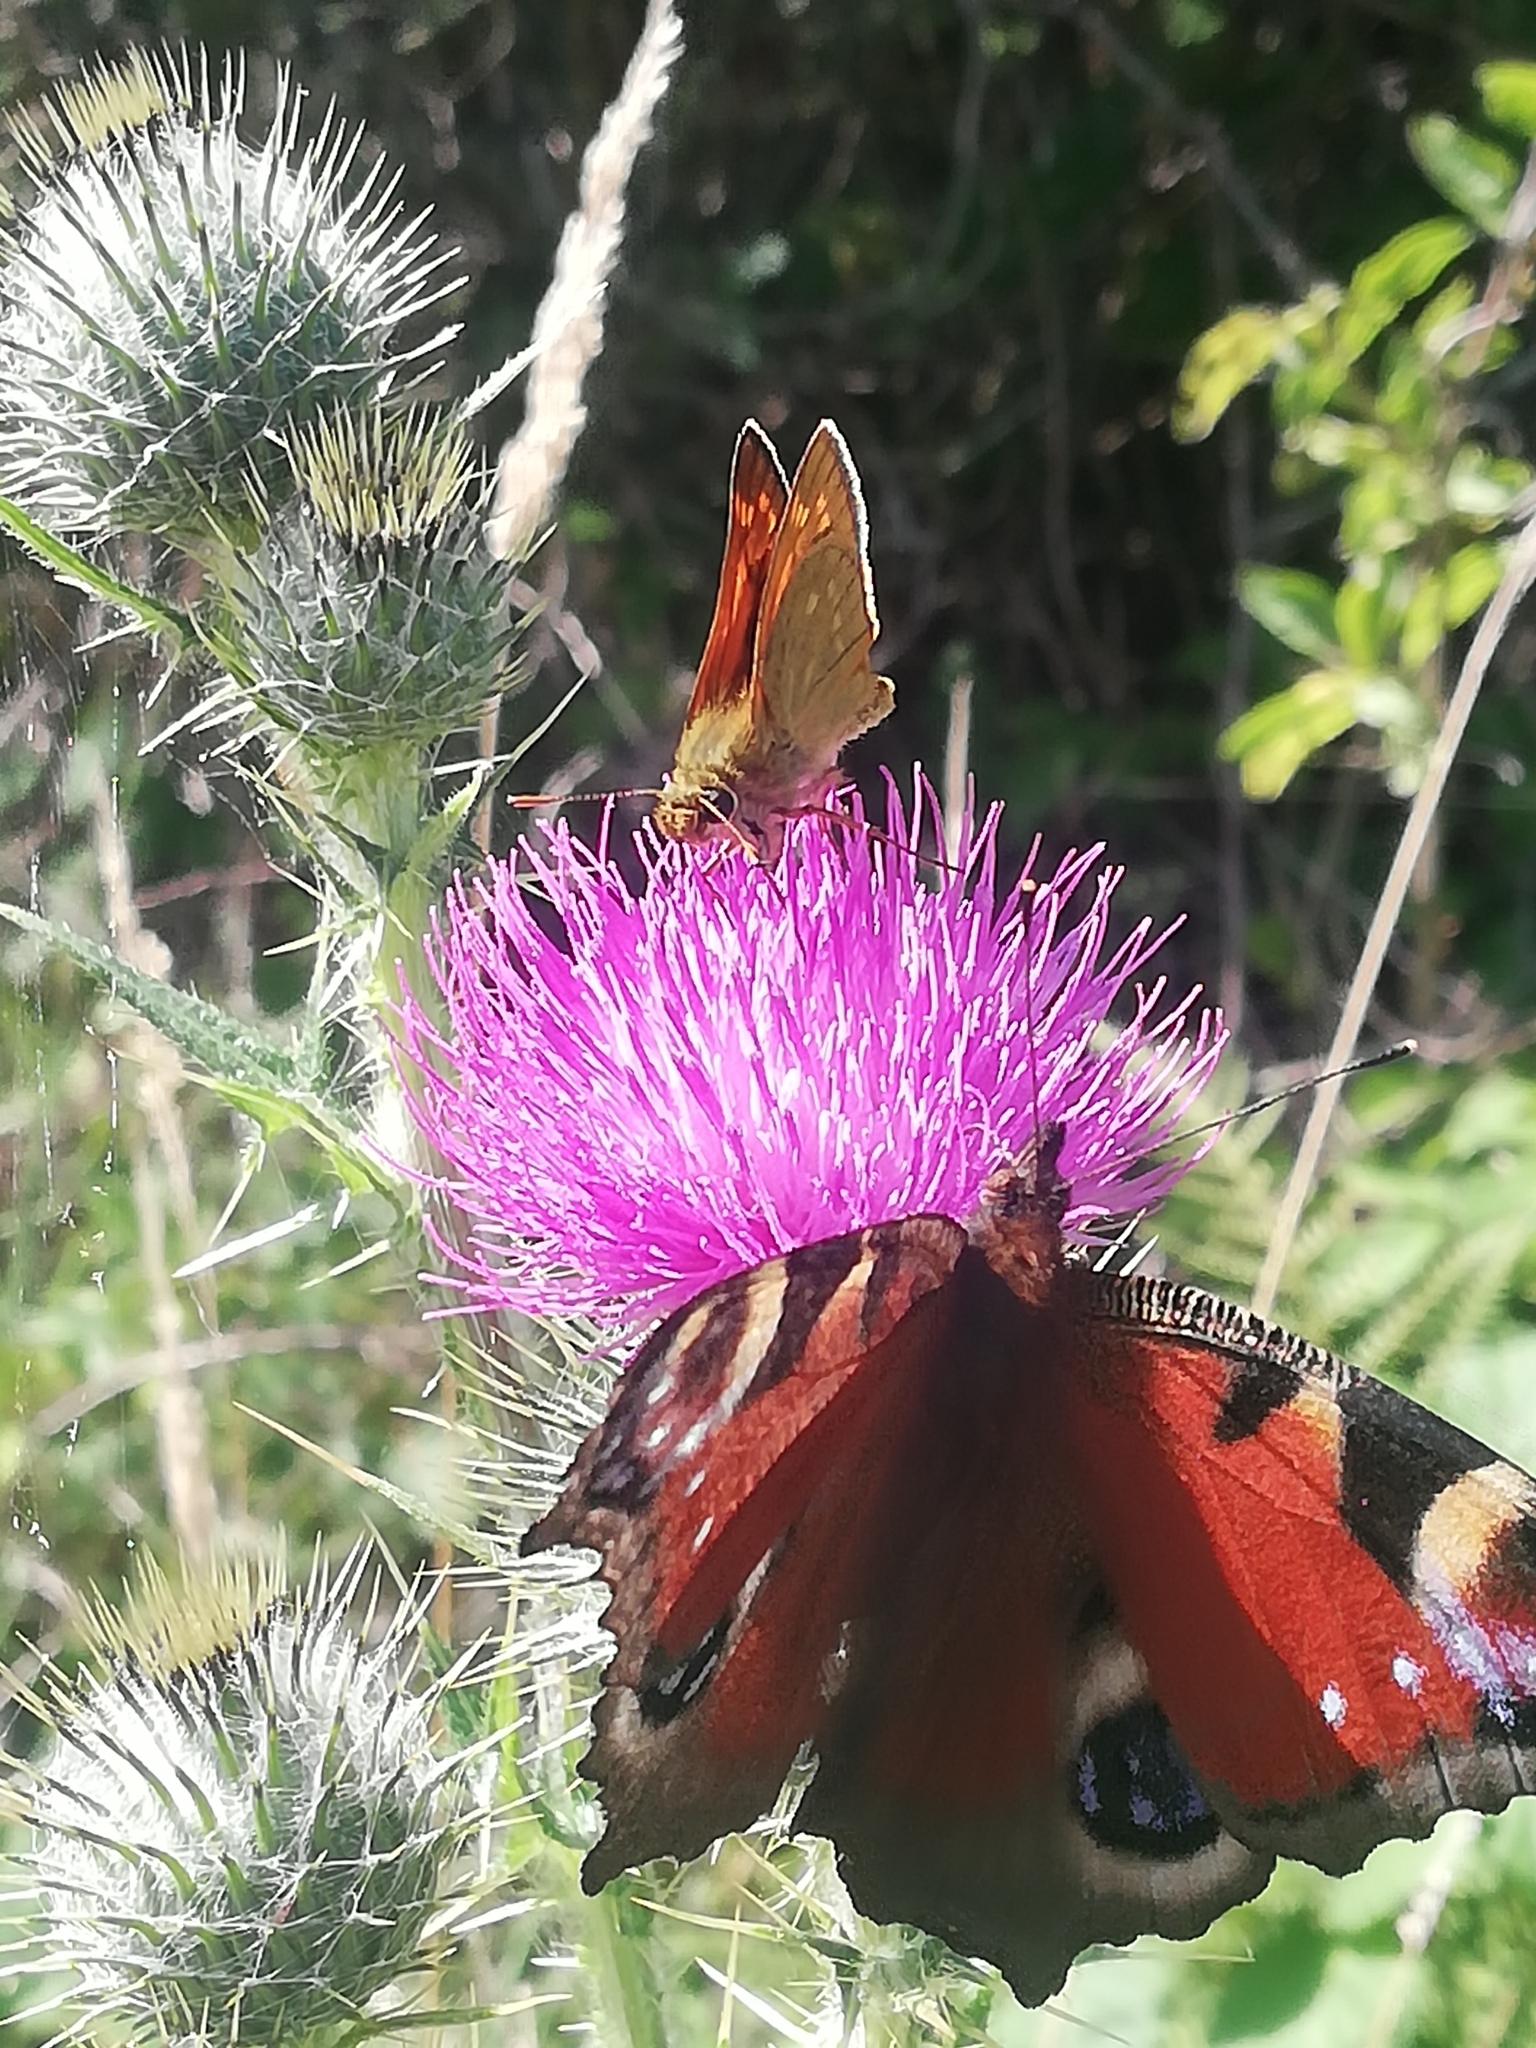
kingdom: Animalia
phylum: Arthropoda
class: Insecta
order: Lepidoptera
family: Hesperiidae
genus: Ochlodes
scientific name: Ochlodes venata
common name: Large skipper
